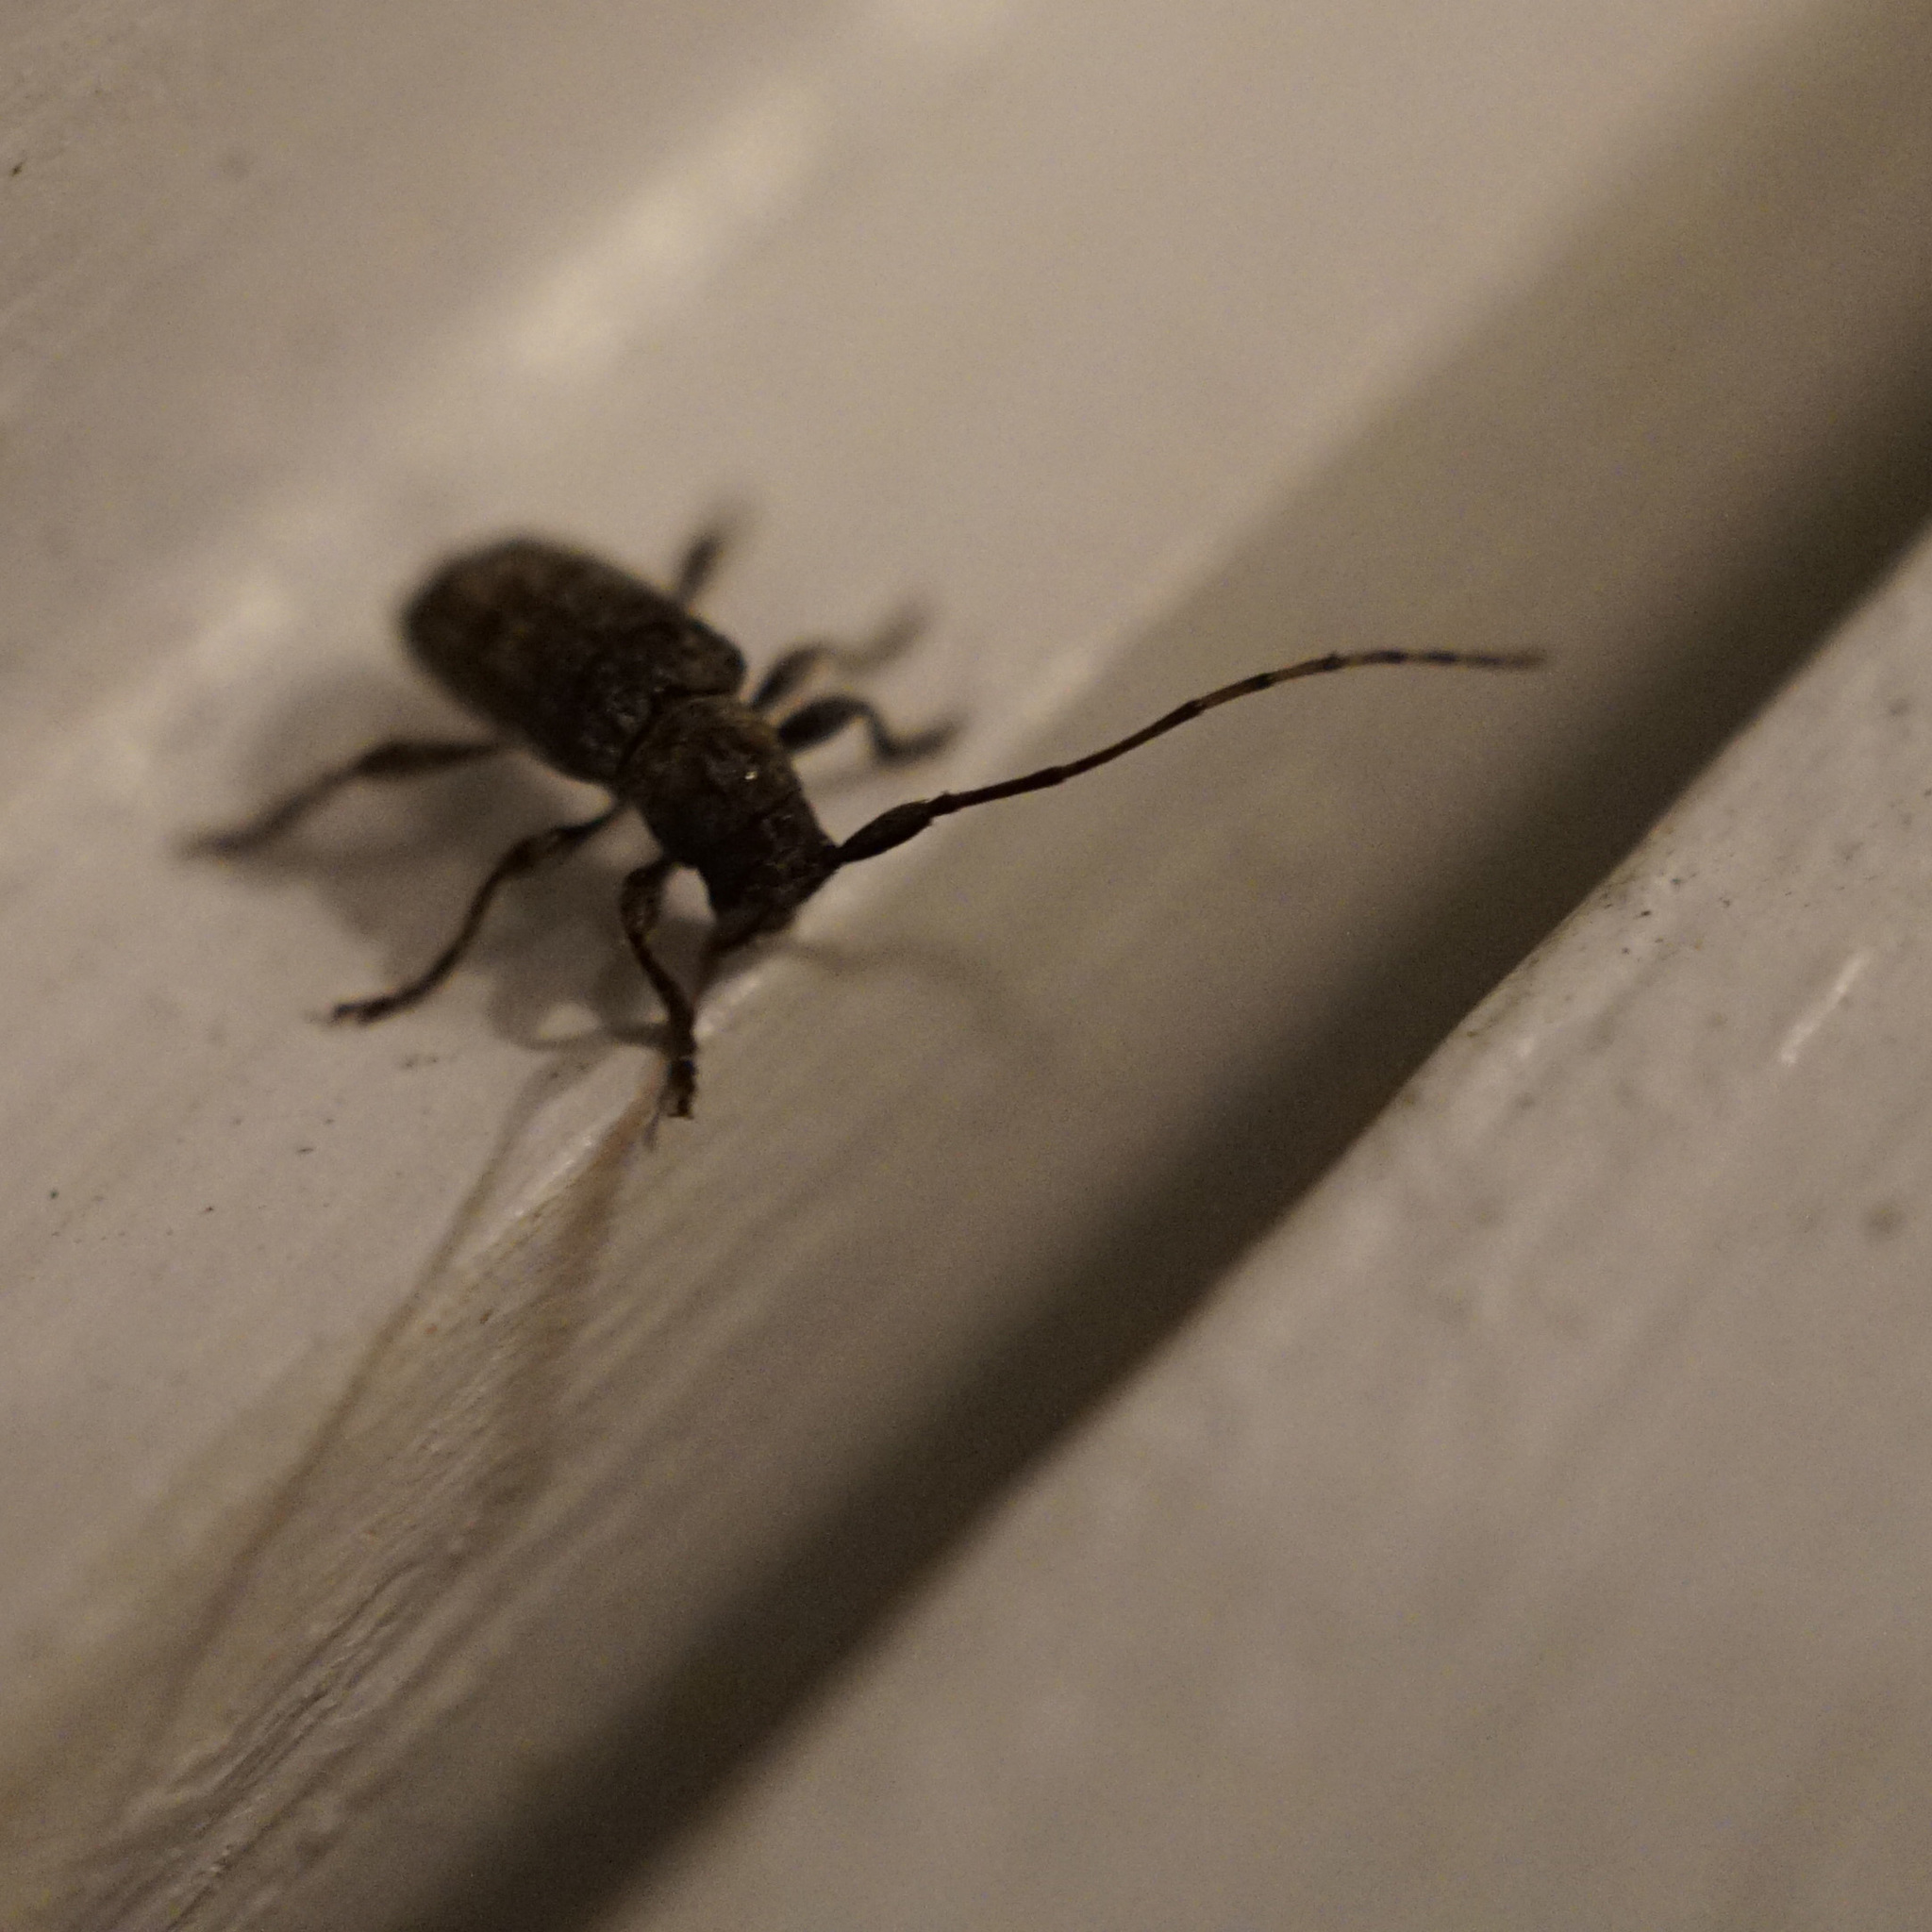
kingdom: Animalia
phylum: Arthropoda
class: Insecta
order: Coleoptera
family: Cerambycidae
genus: Ecyrus
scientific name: Ecyrus dasycerus
